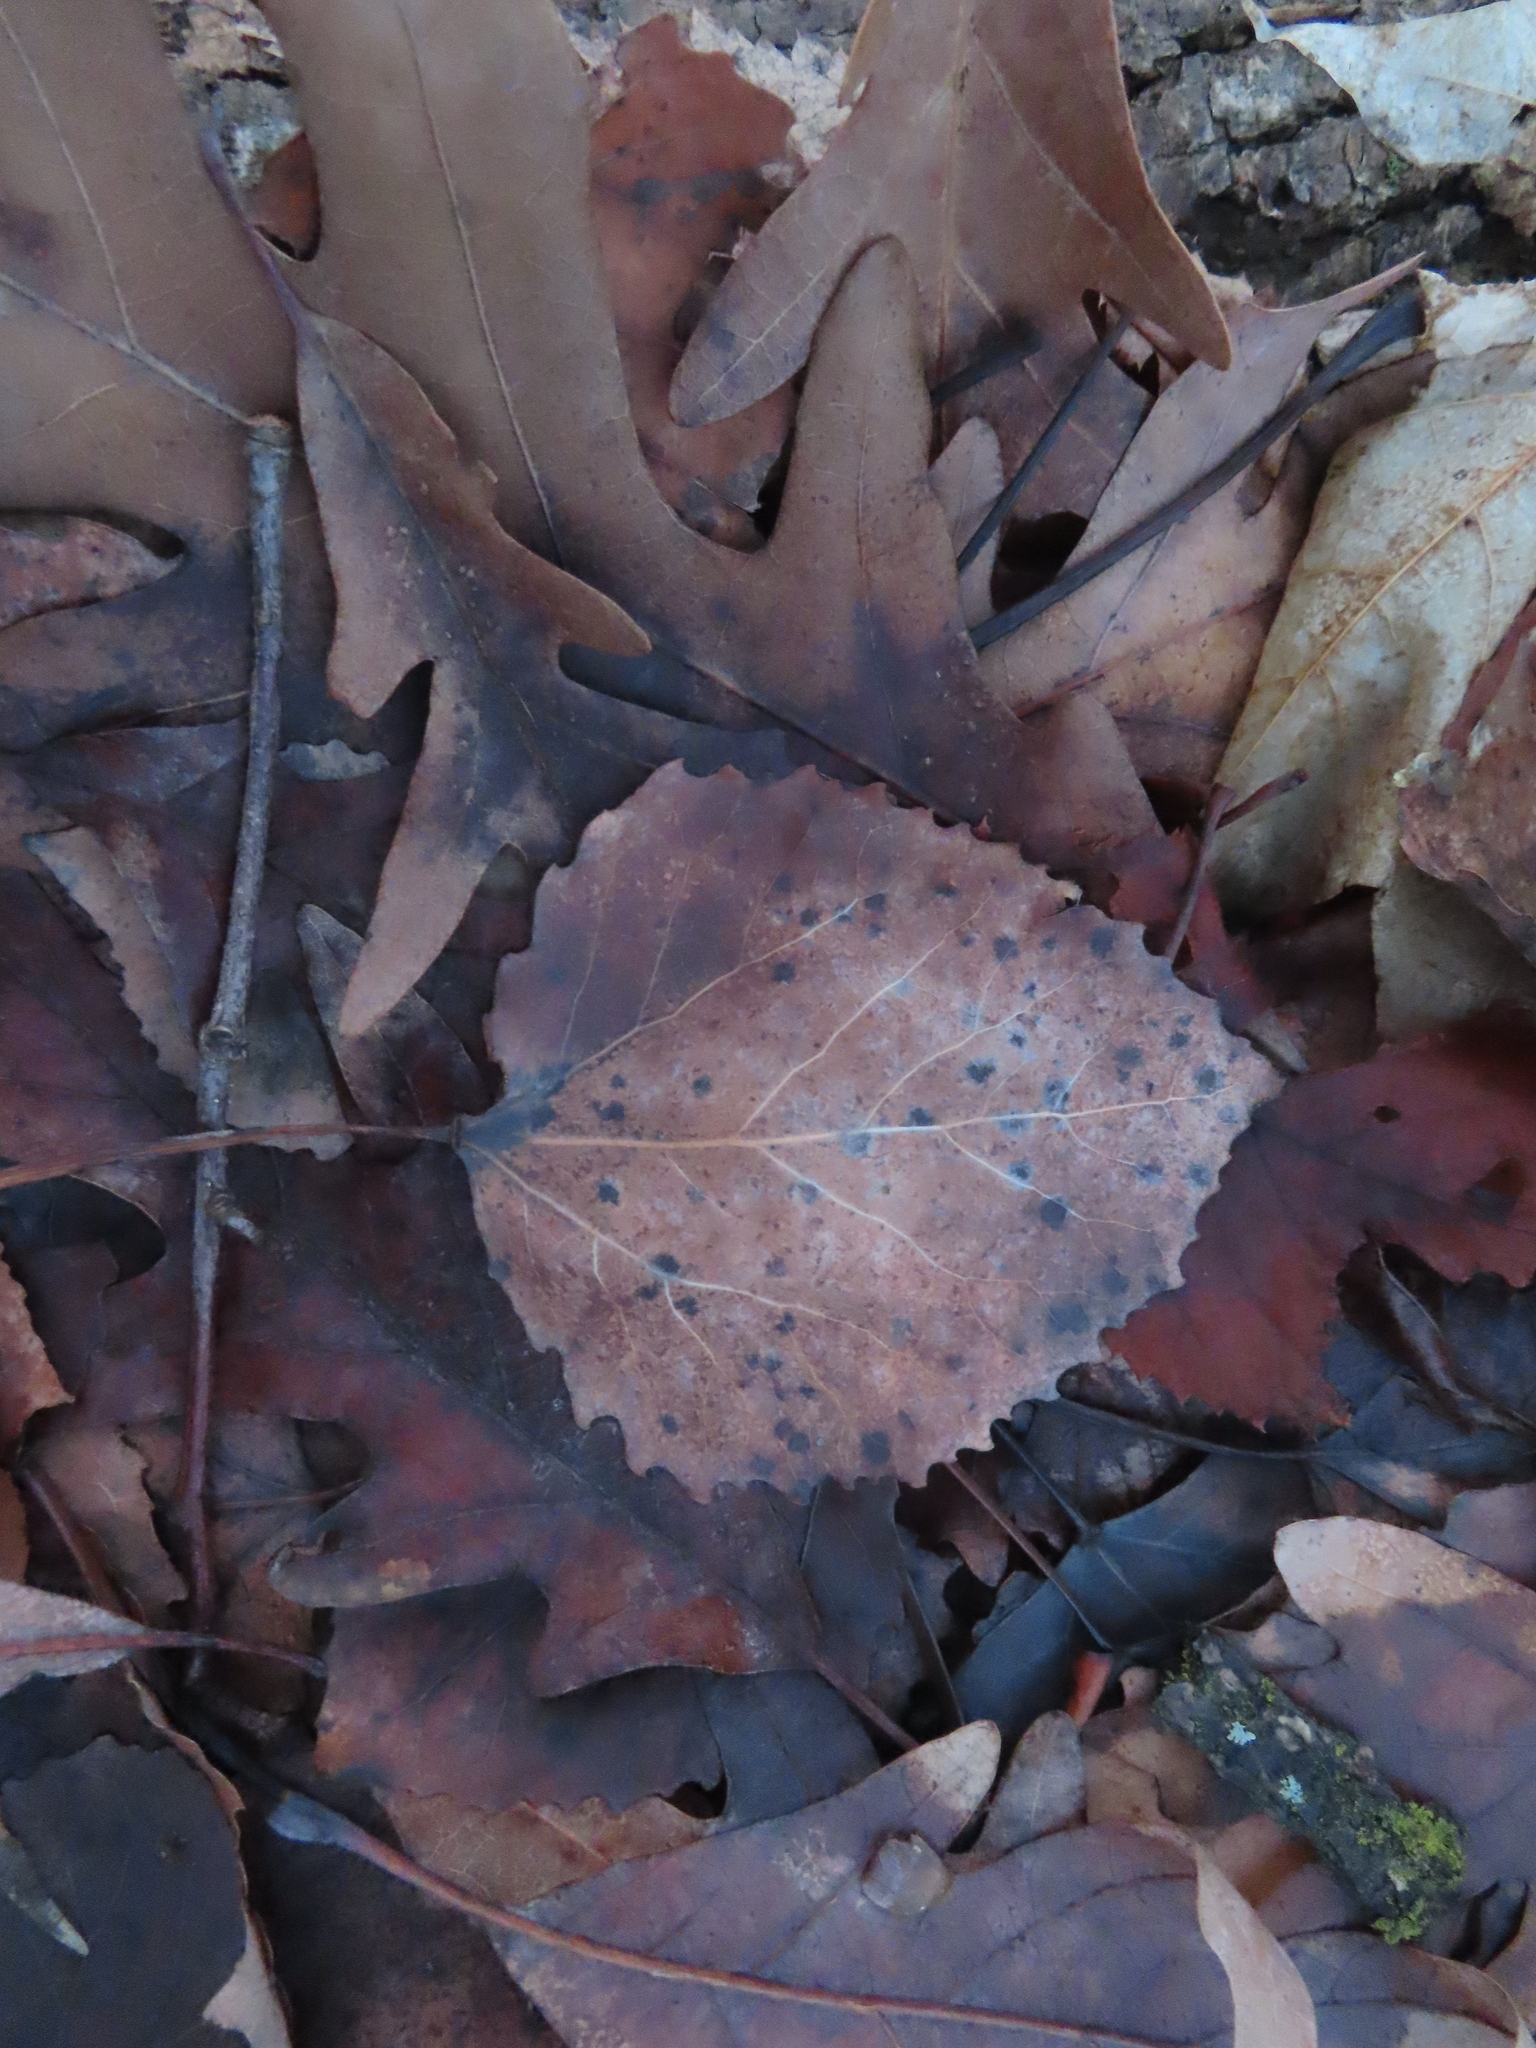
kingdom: Plantae
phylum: Tracheophyta
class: Magnoliopsida
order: Malpighiales
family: Salicaceae
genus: Populus
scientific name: Populus grandidentata
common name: Bigtooth aspen
